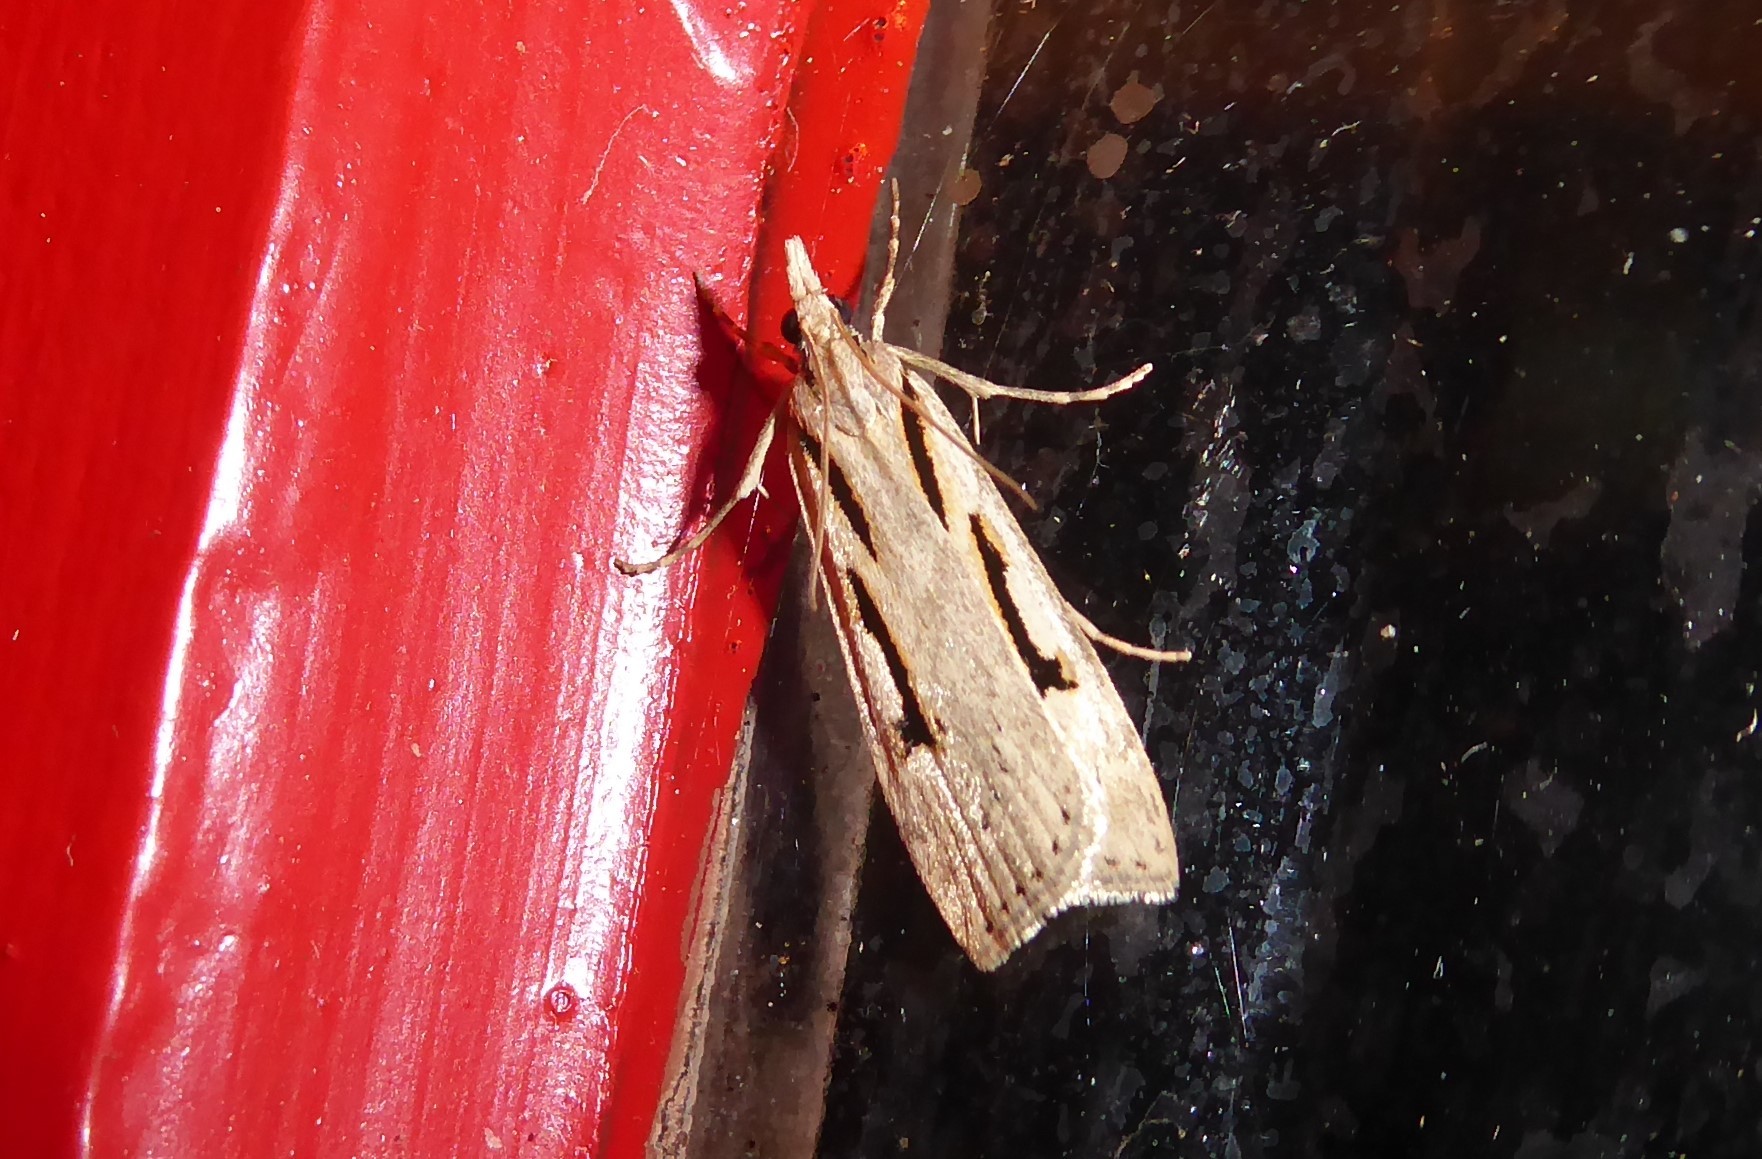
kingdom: Animalia
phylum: Arthropoda
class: Insecta
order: Lepidoptera
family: Crambidae
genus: Scoparia
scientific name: Scoparia rotuellus
